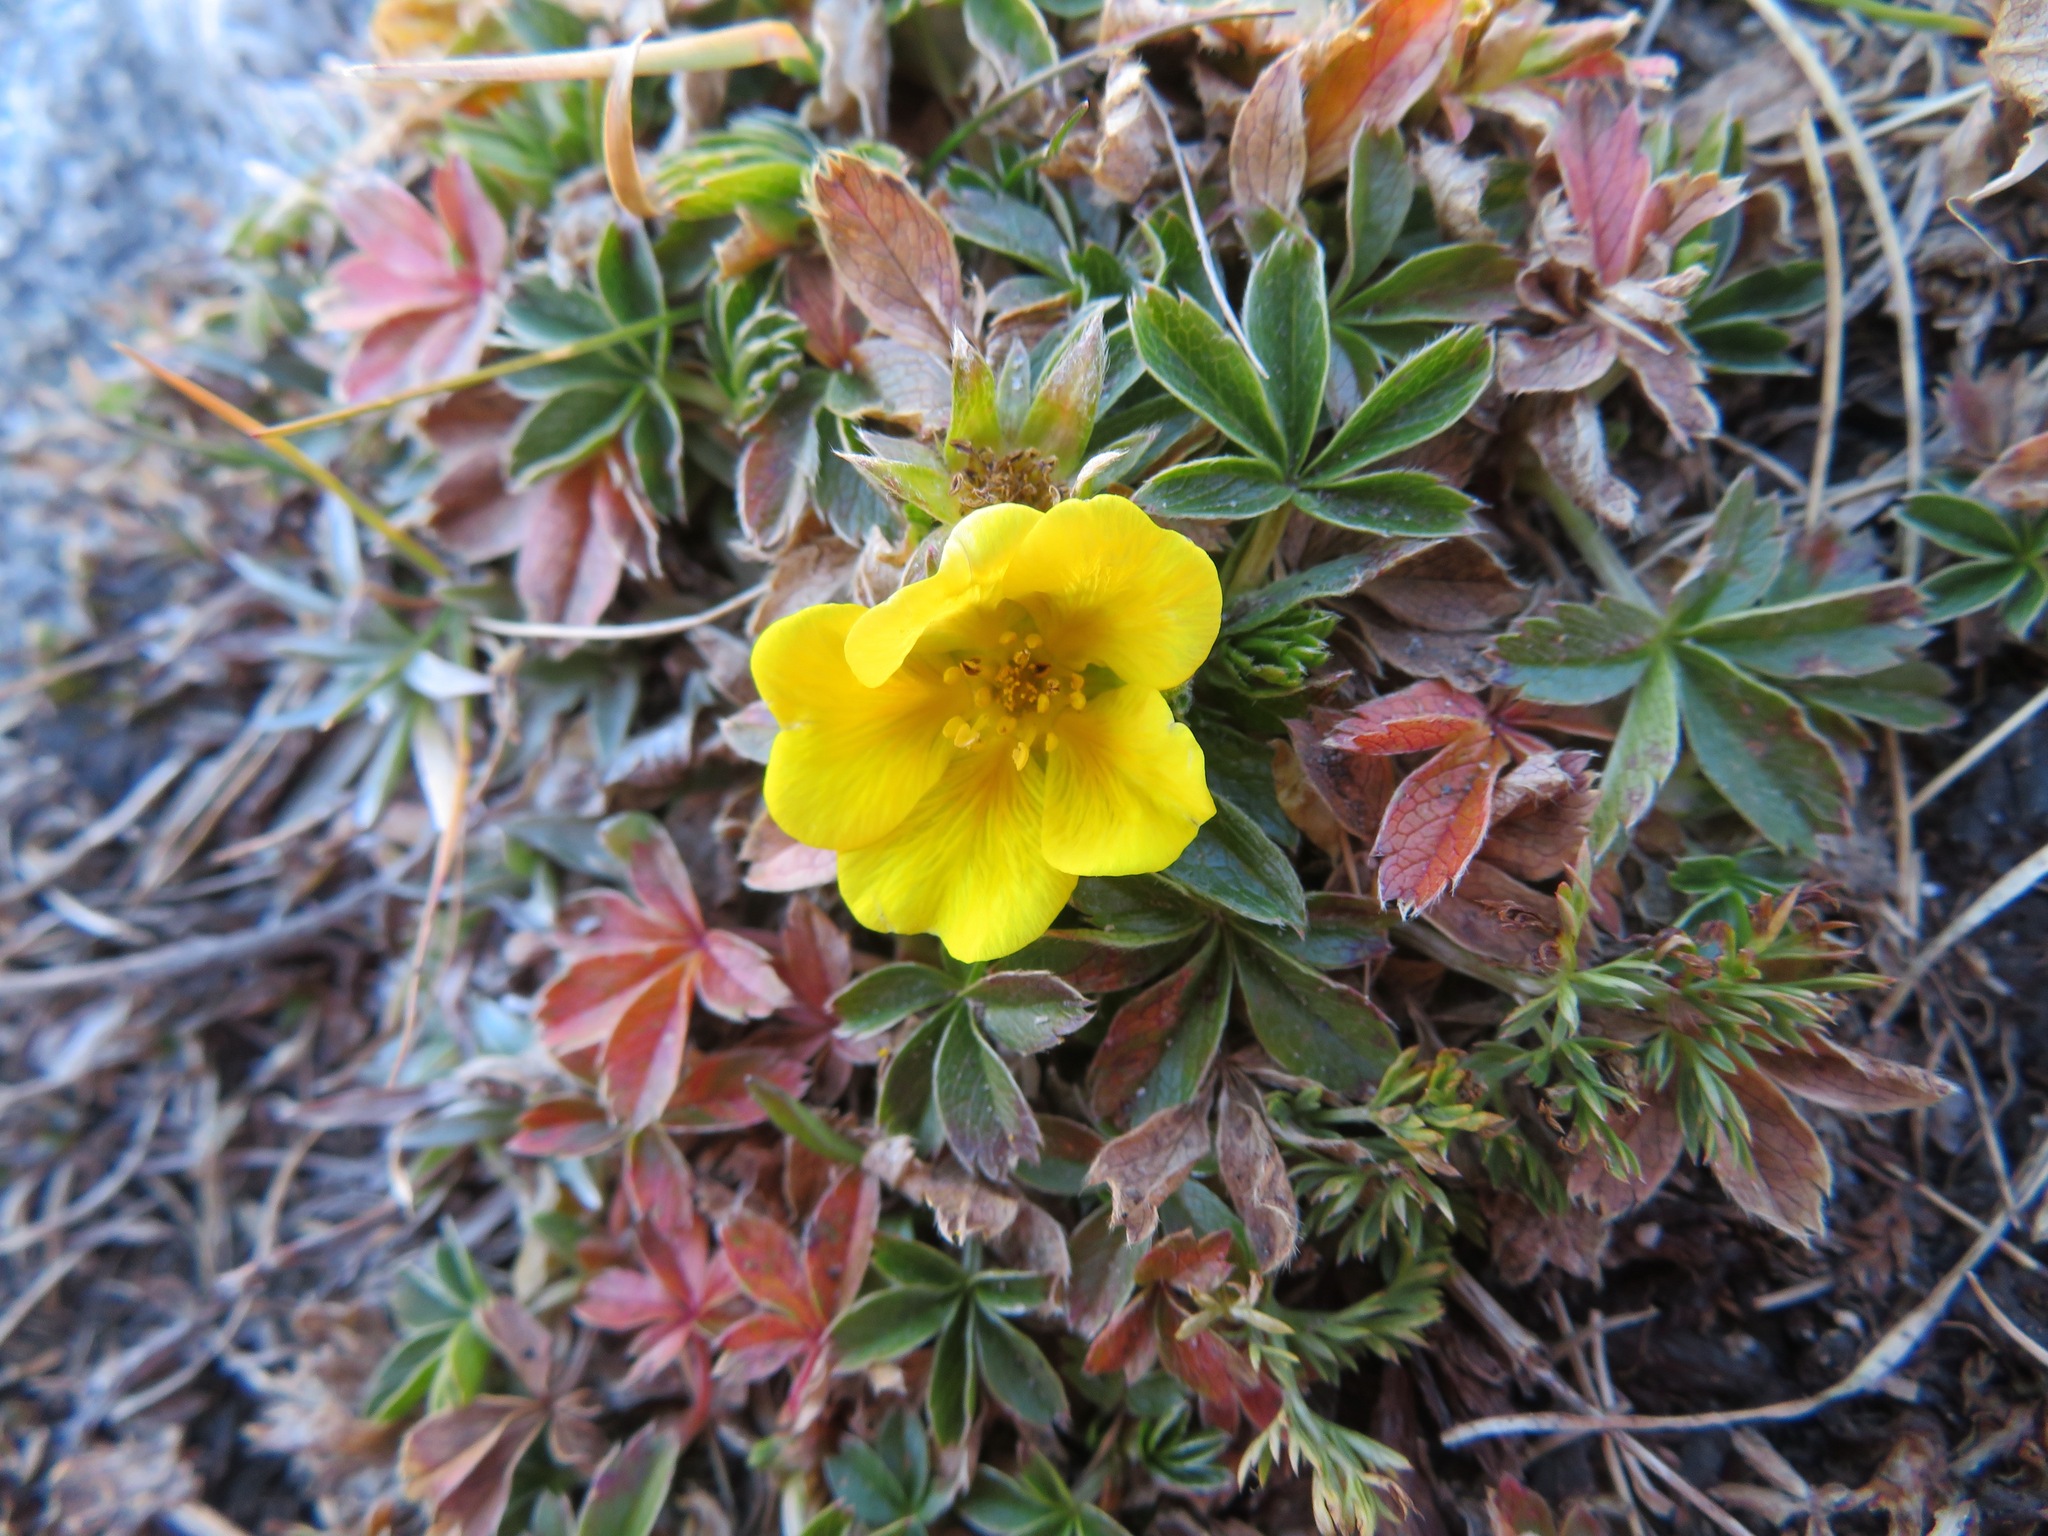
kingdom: Plantae
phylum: Tracheophyta
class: Magnoliopsida
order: Rosales
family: Rosaceae
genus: Potentilla
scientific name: Potentilla aurea
